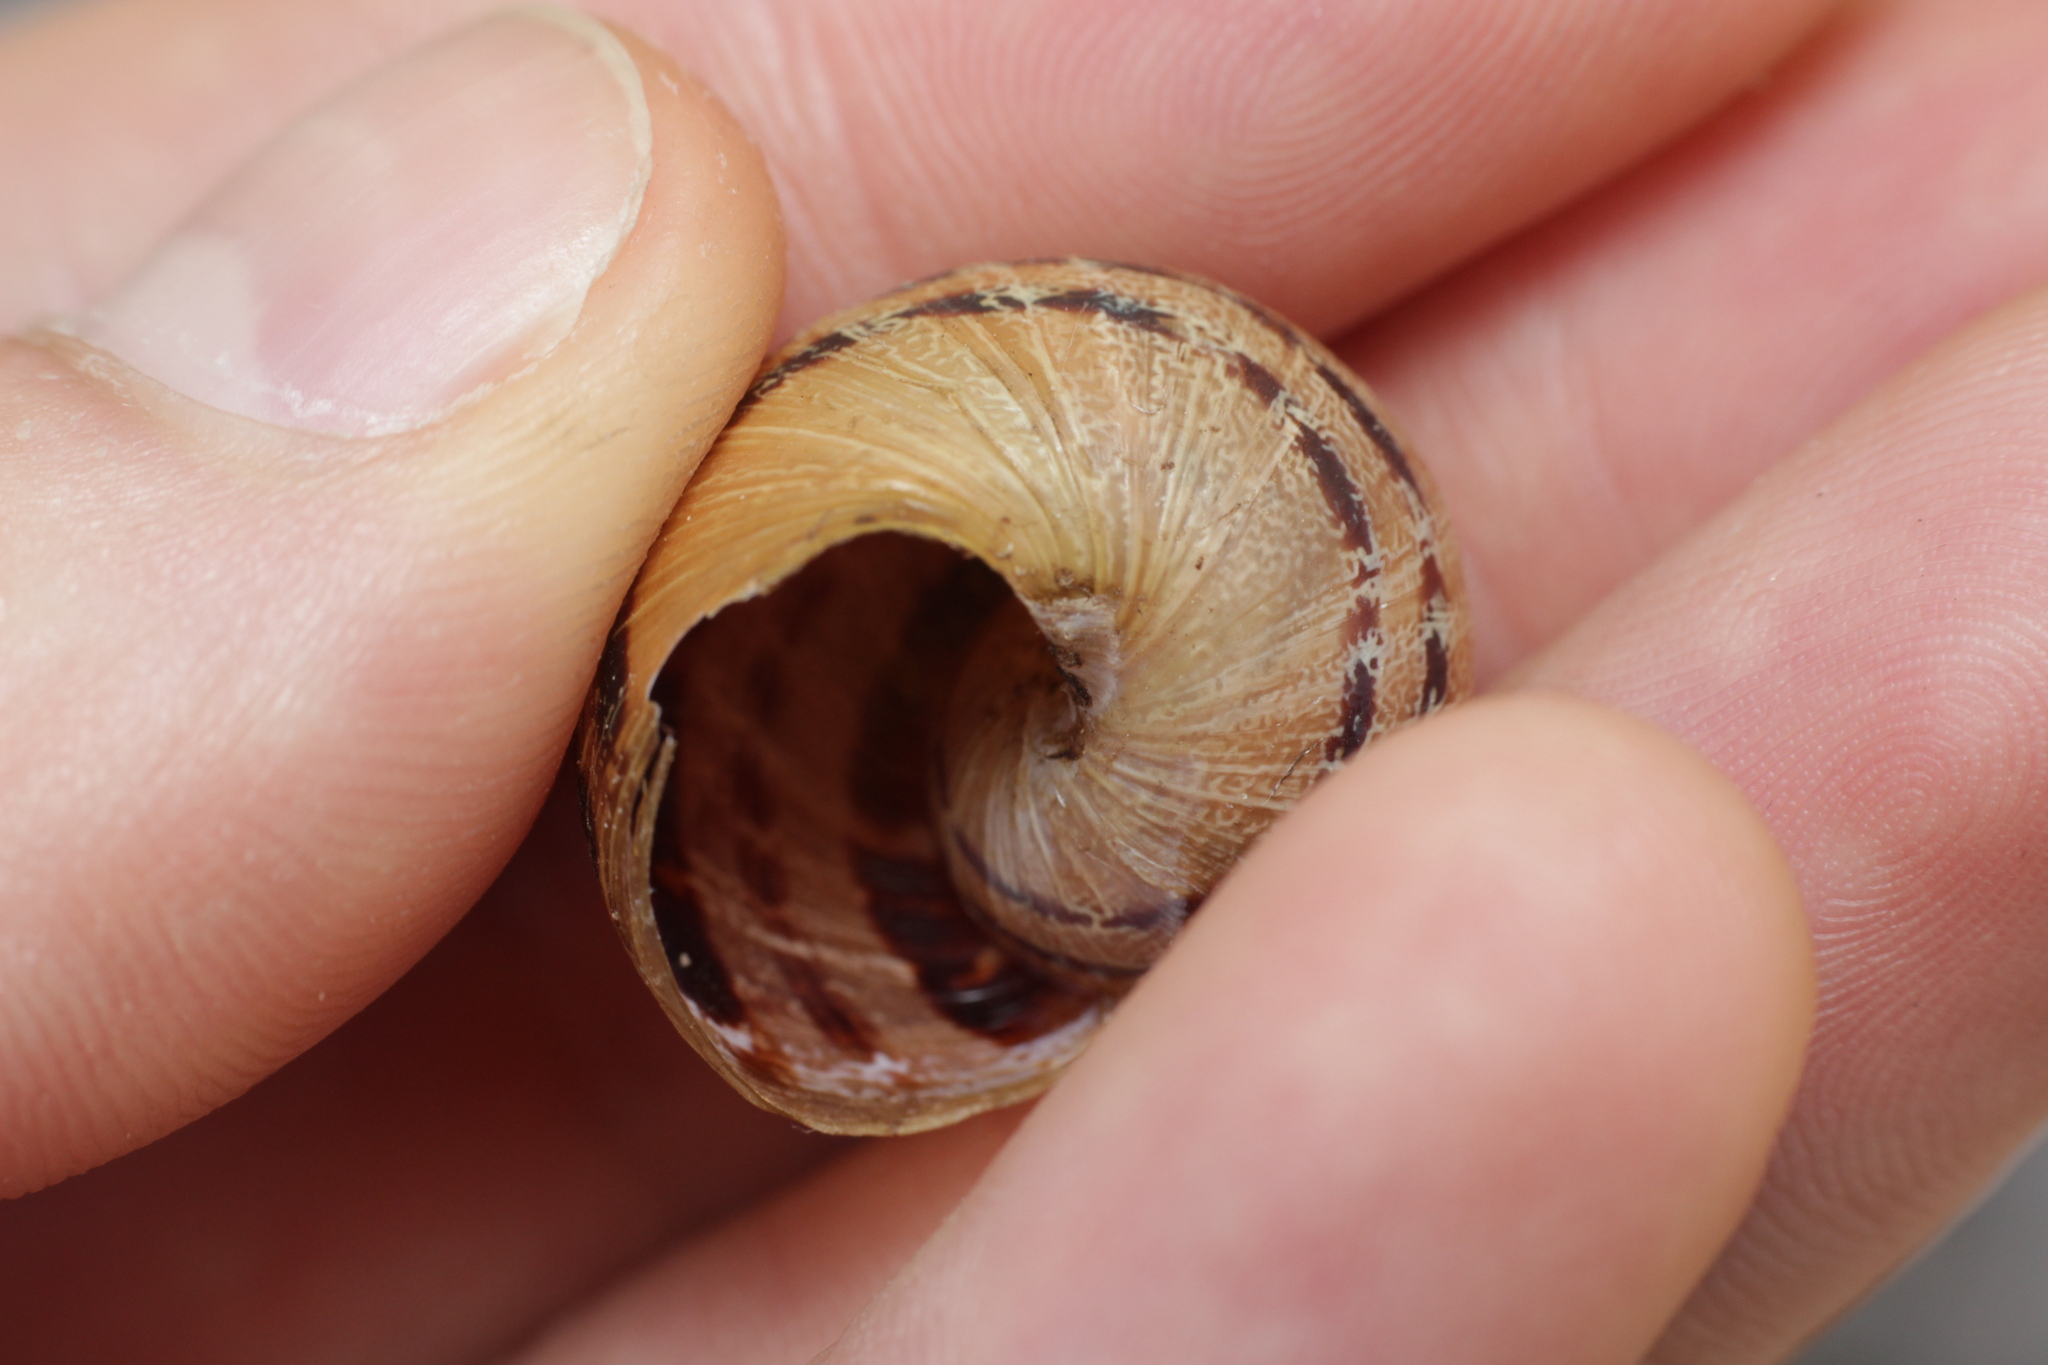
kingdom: Animalia
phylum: Mollusca
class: Gastropoda
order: Stylommatophora
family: Helicidae
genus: Cornu
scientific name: Cornu aspersum
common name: Brown garden snail
